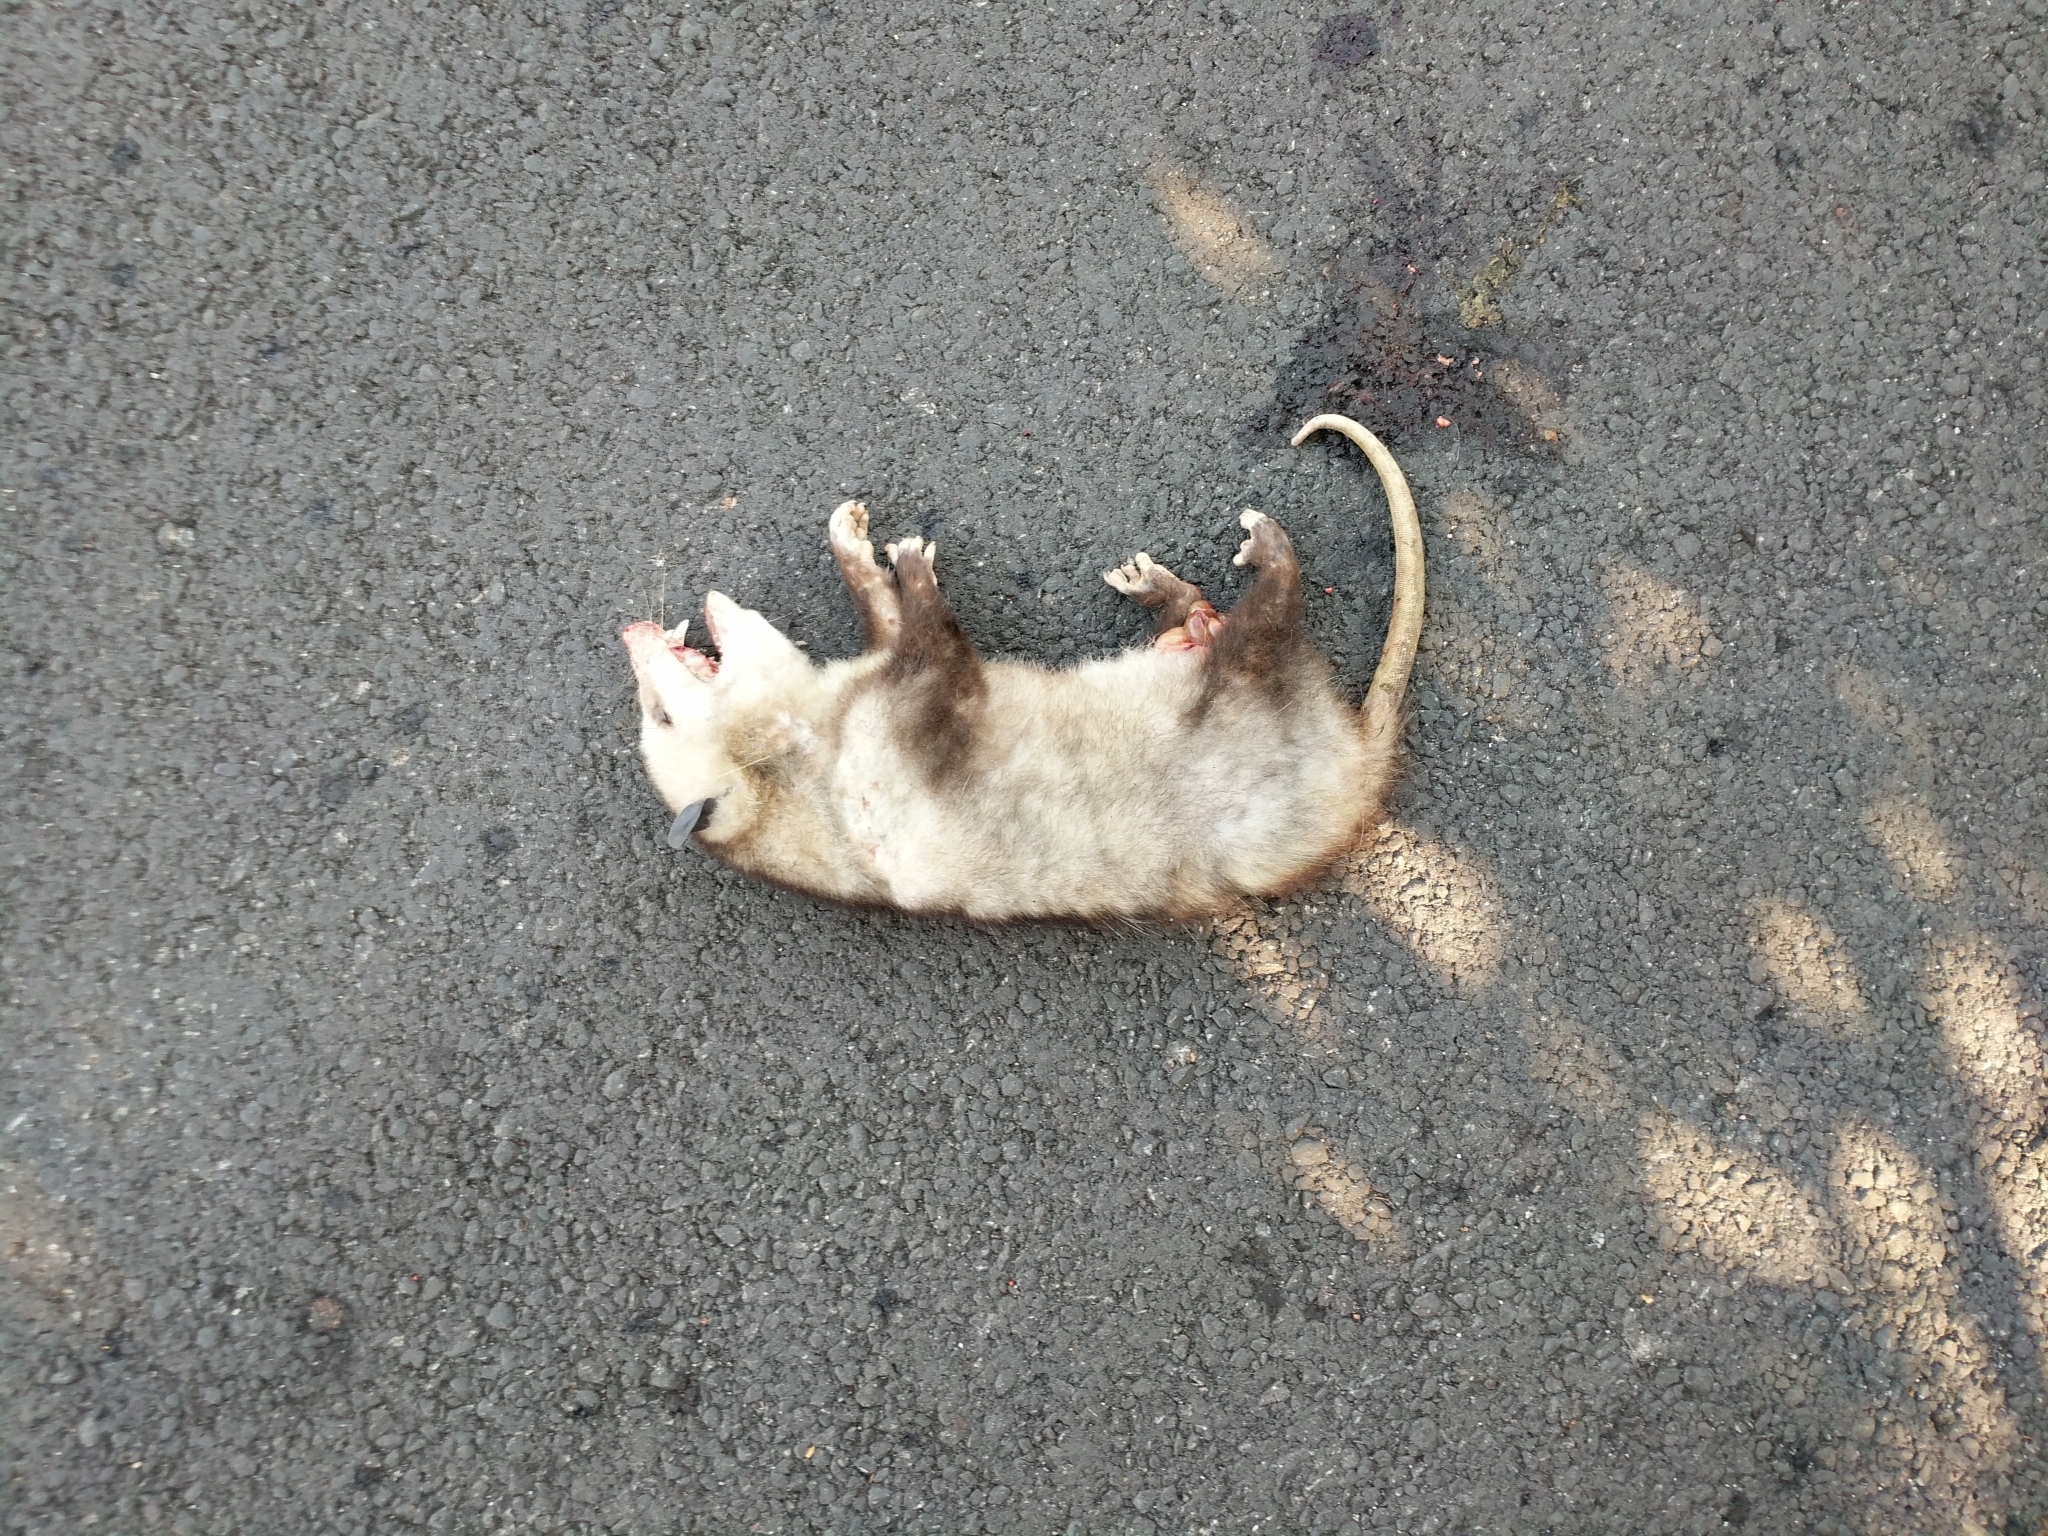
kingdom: Animalia
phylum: Chordata
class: Mammalia
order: Didelphimorphia
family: Didelphidae
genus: Didelphis
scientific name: Didelphis virginiana
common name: Virginia opossum
